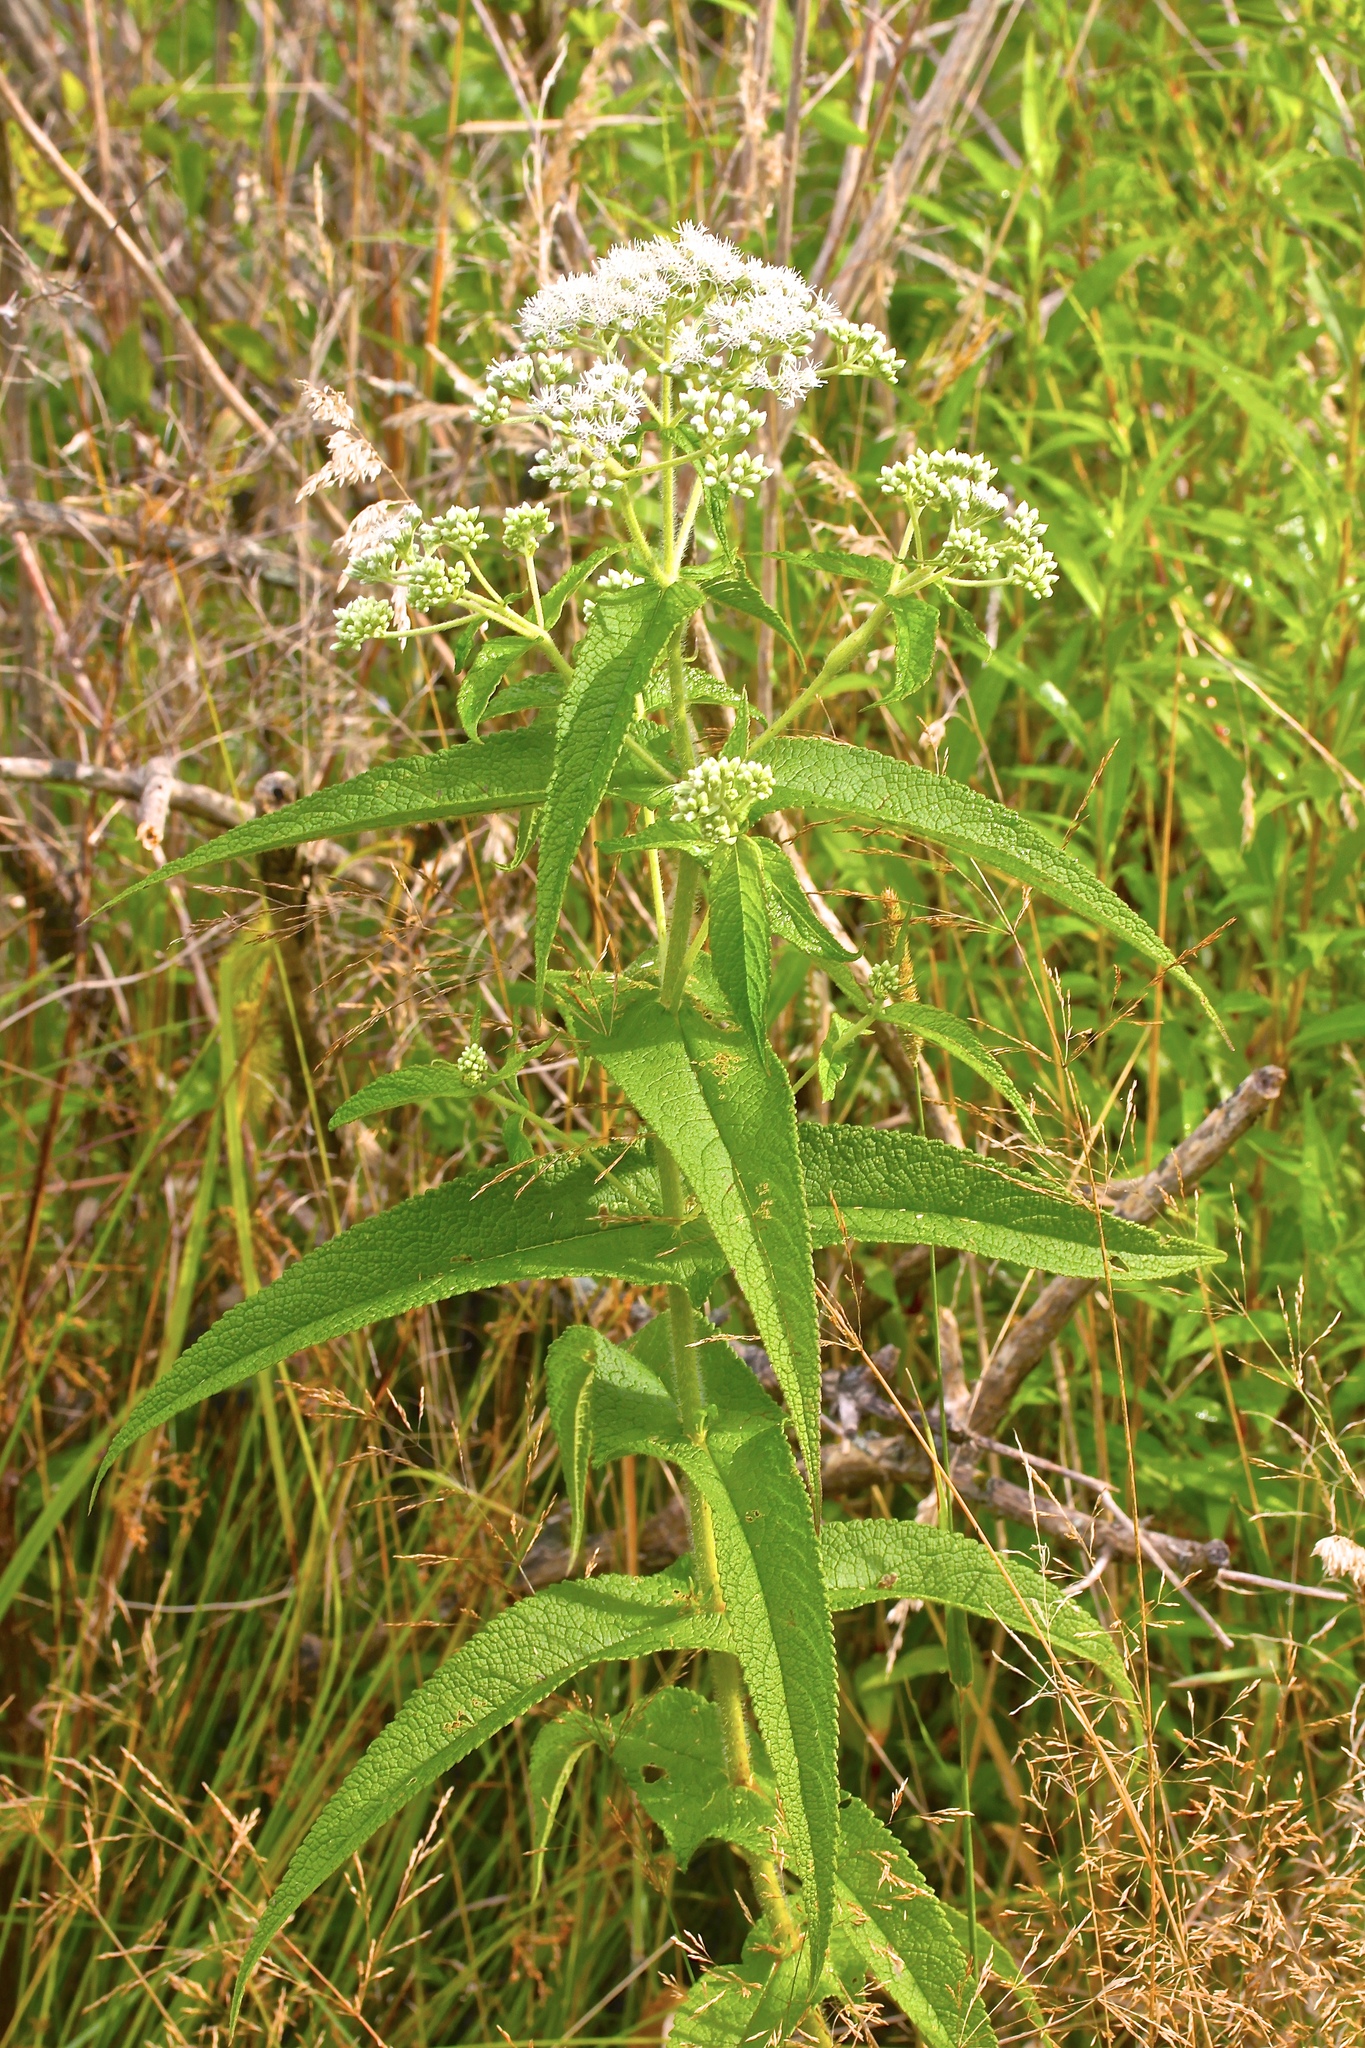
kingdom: Plantae
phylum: Tracheophyta
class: Magnoliopsida
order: Asterales
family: Asteraceae
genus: Eupatorium
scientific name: Eupatorium perfoliatum
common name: Boneset
